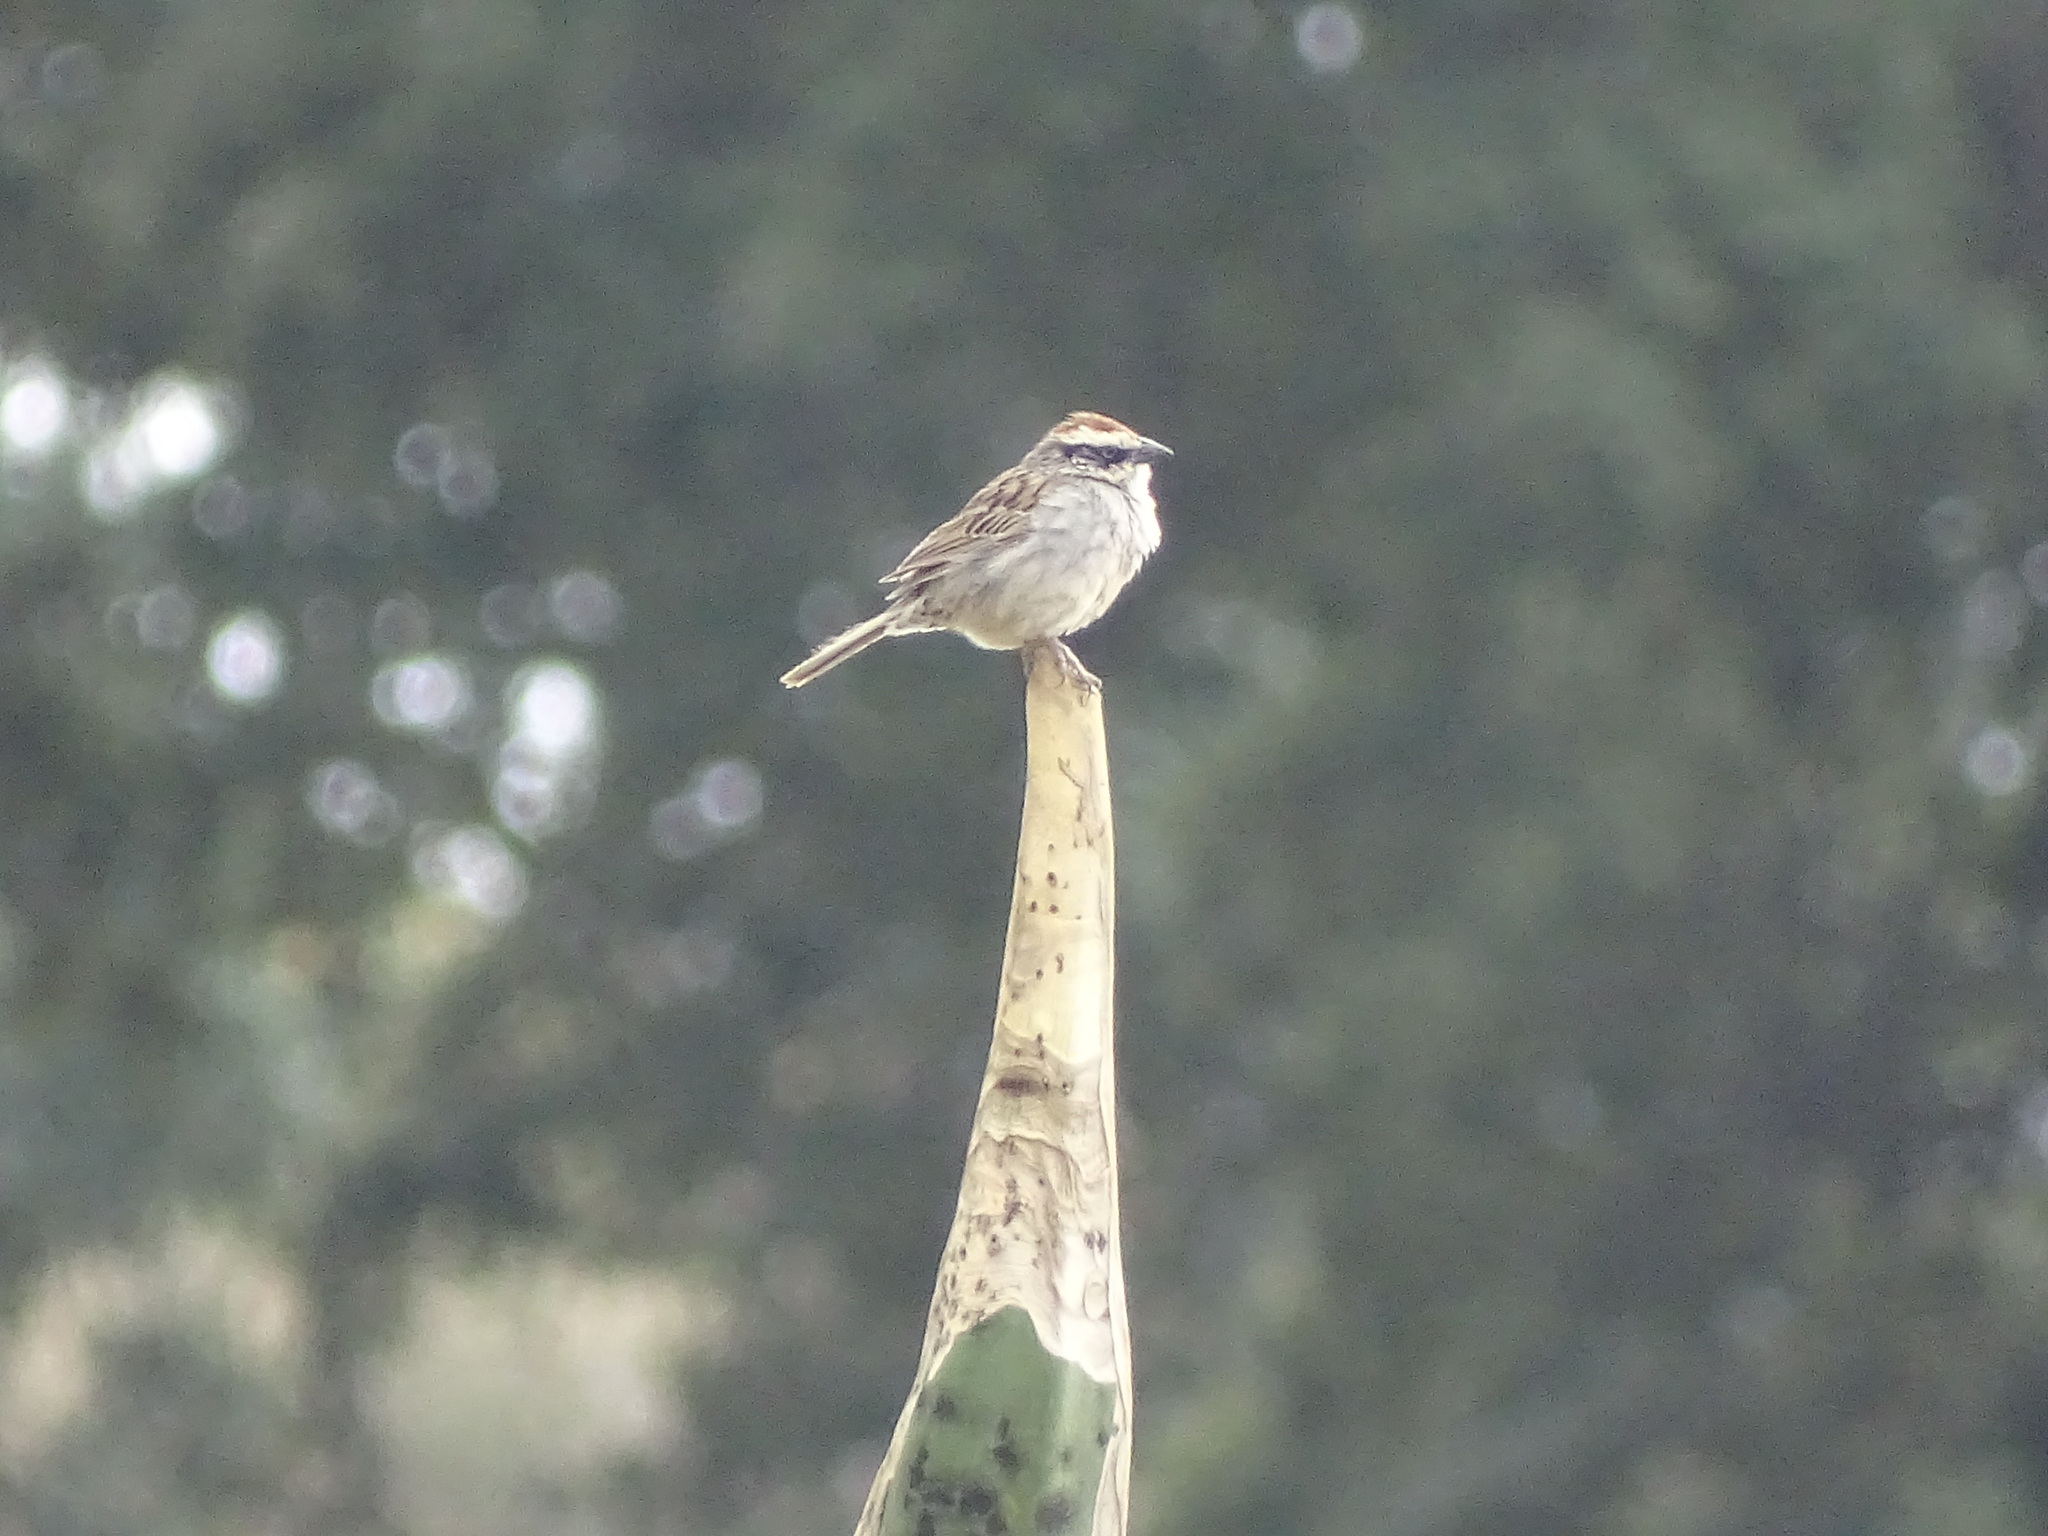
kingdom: Animalia
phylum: Chordata
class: Aves
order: Passeriformes
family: Passerellidae
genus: Oriturus
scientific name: Oriturus superciliosus
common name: Striped sparrow
